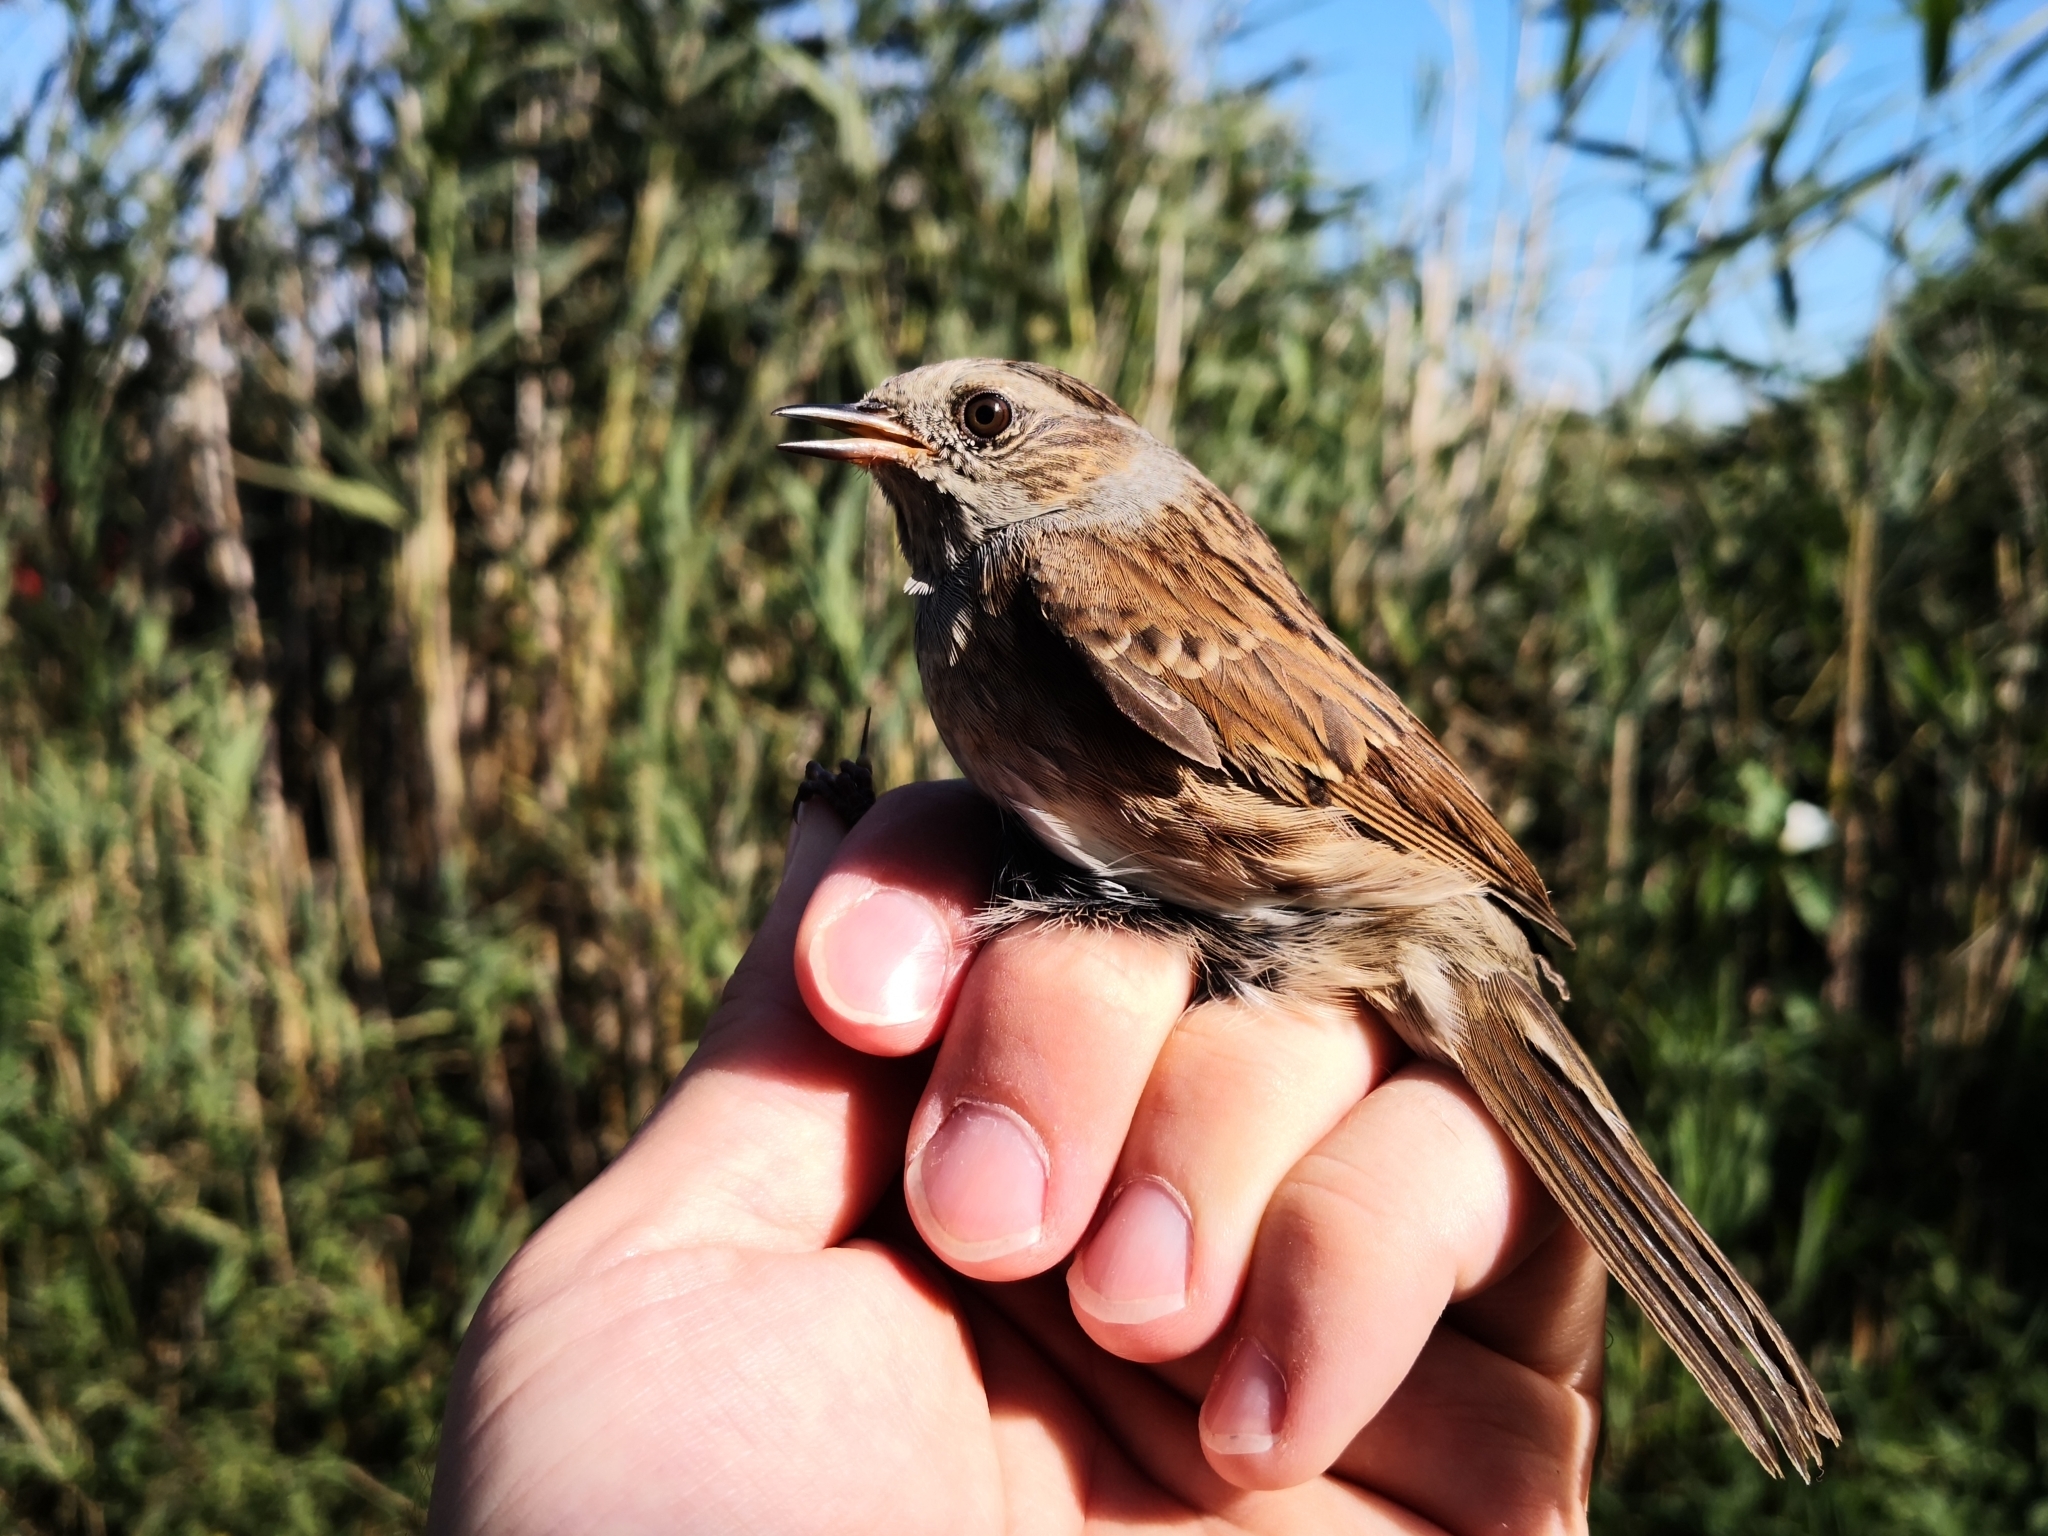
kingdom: Animalia
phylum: Chordata
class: Aves
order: Passeriformes
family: Prunellidae
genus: Prunella
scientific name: Prunella modularis
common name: Dunnock
